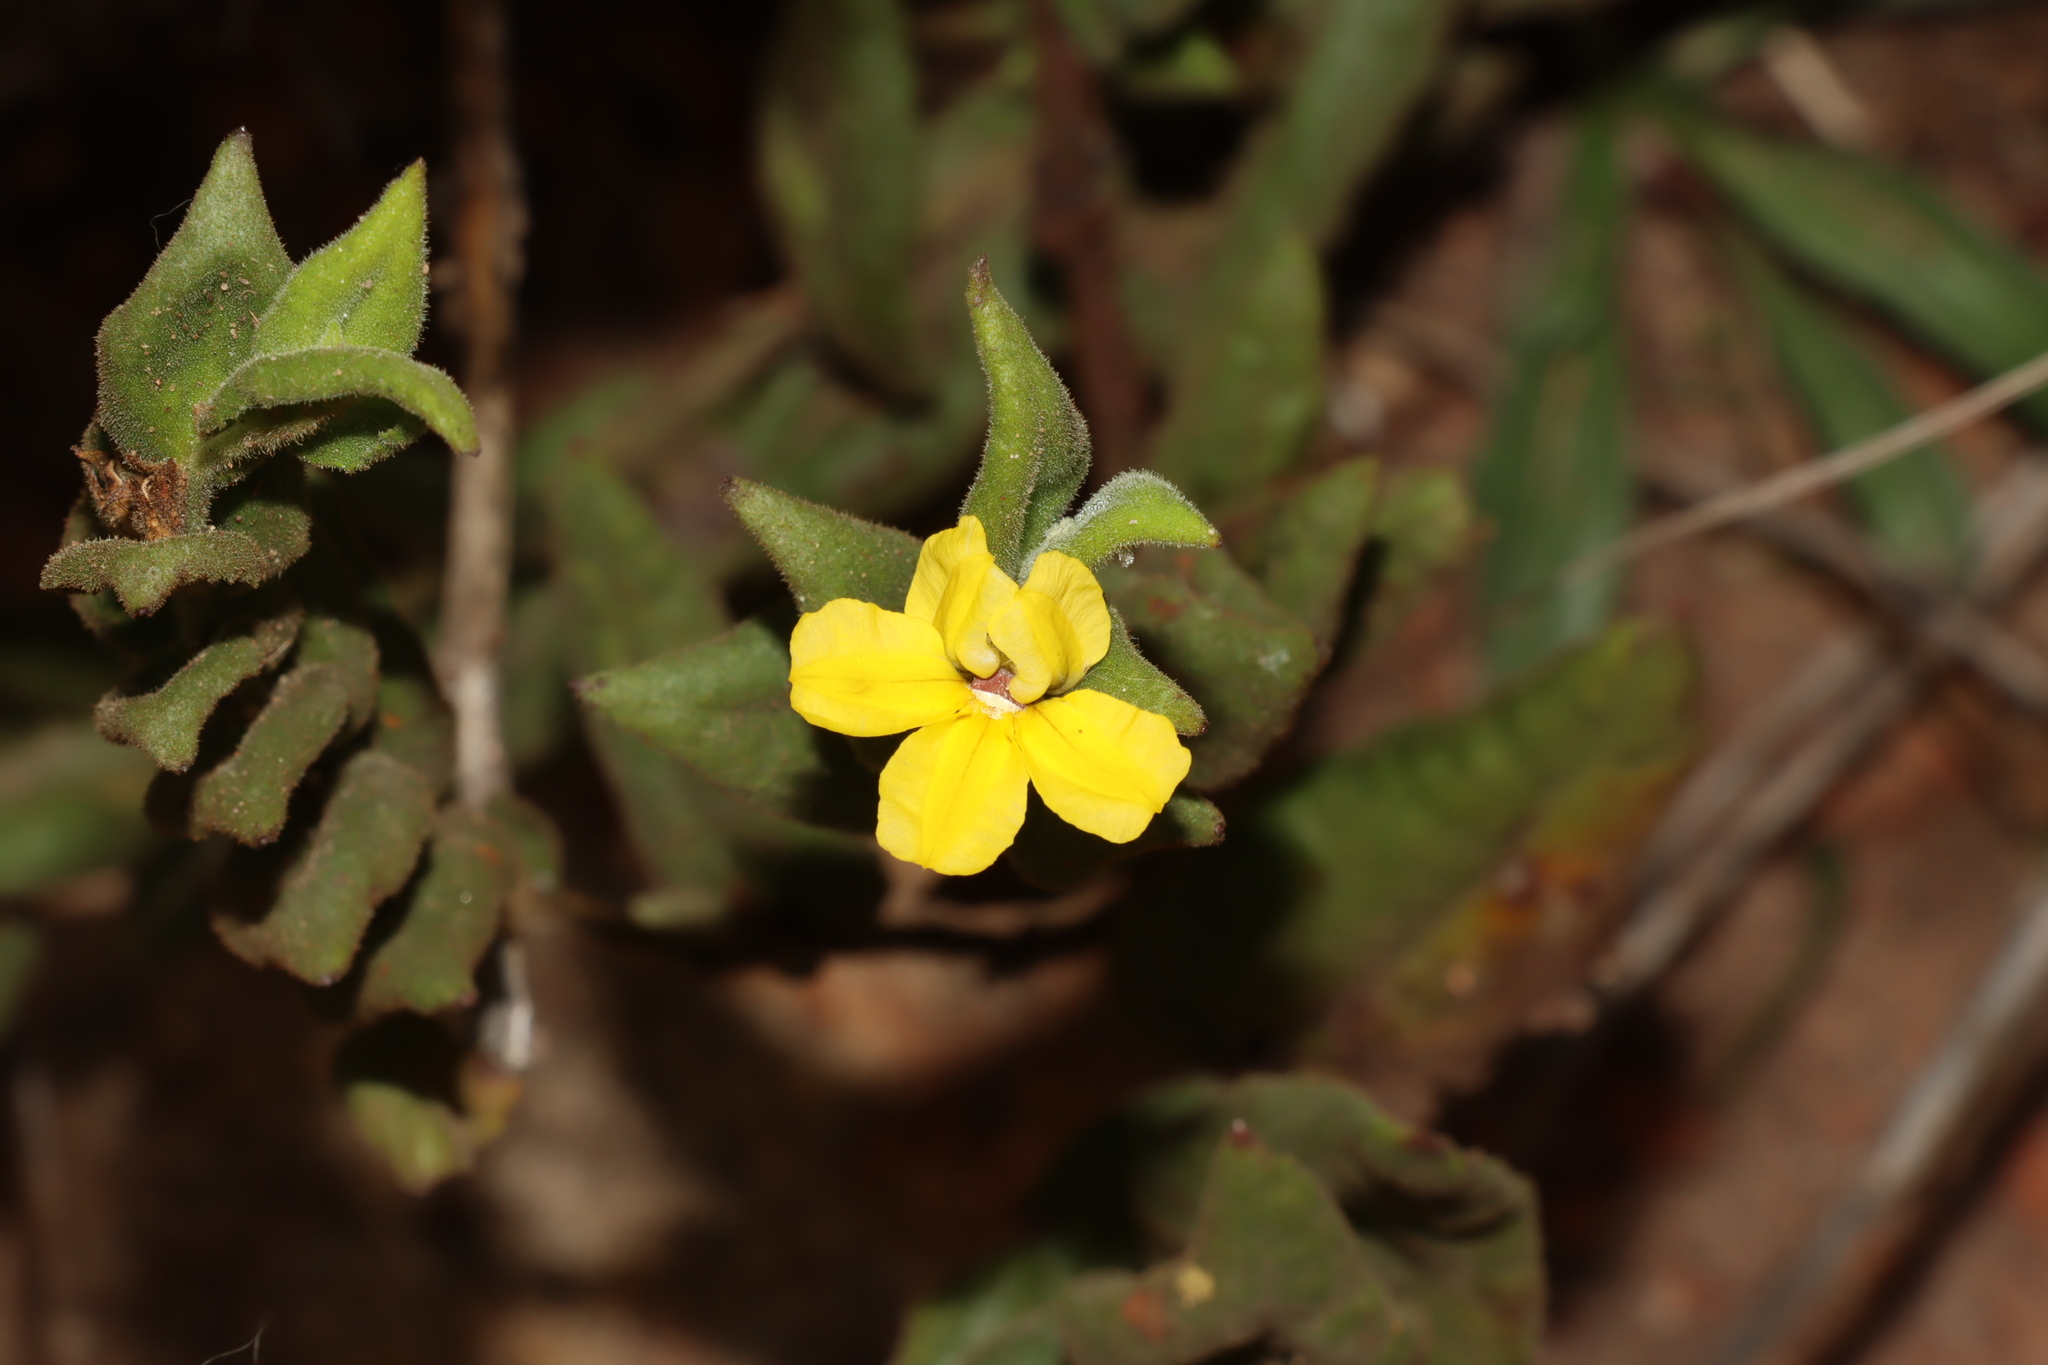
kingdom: Plantae
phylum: Tracheophyta
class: Magnoliopsida
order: Asterales
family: Goodeniaceae
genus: Goodenia
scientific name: Goodenia amplexans
